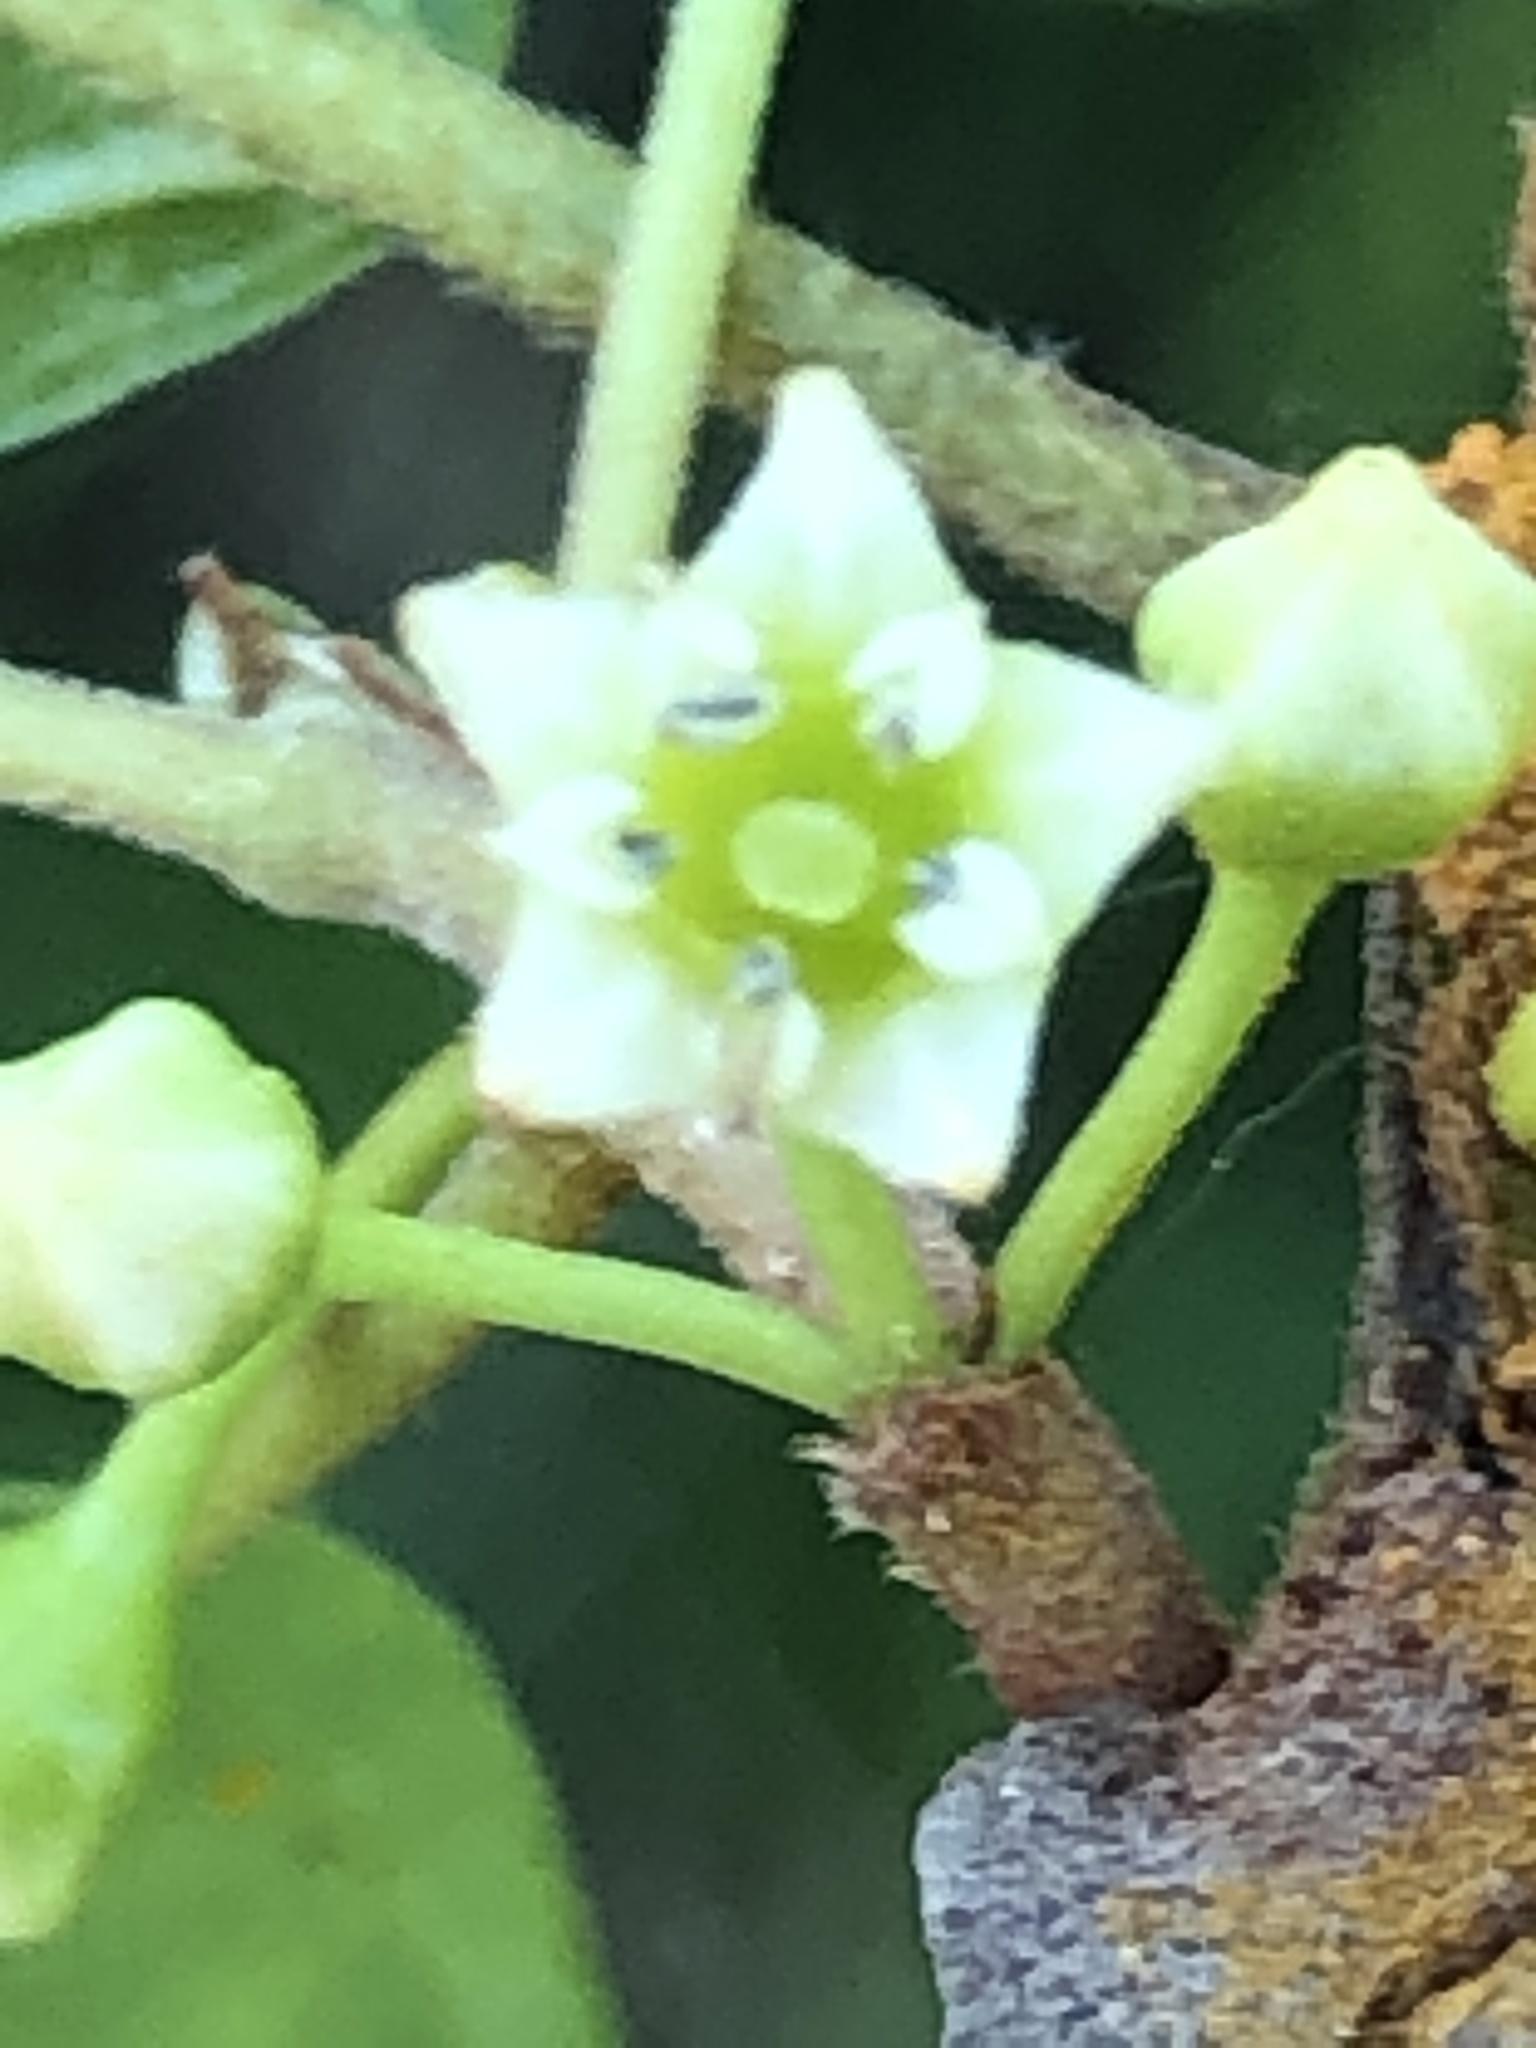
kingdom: Plantae
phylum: Tracheophyta
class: Magnoliopsida
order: Rosales
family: Rhamnaceae
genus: Frangula
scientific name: Frangula alnus
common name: Alder buckthorn
